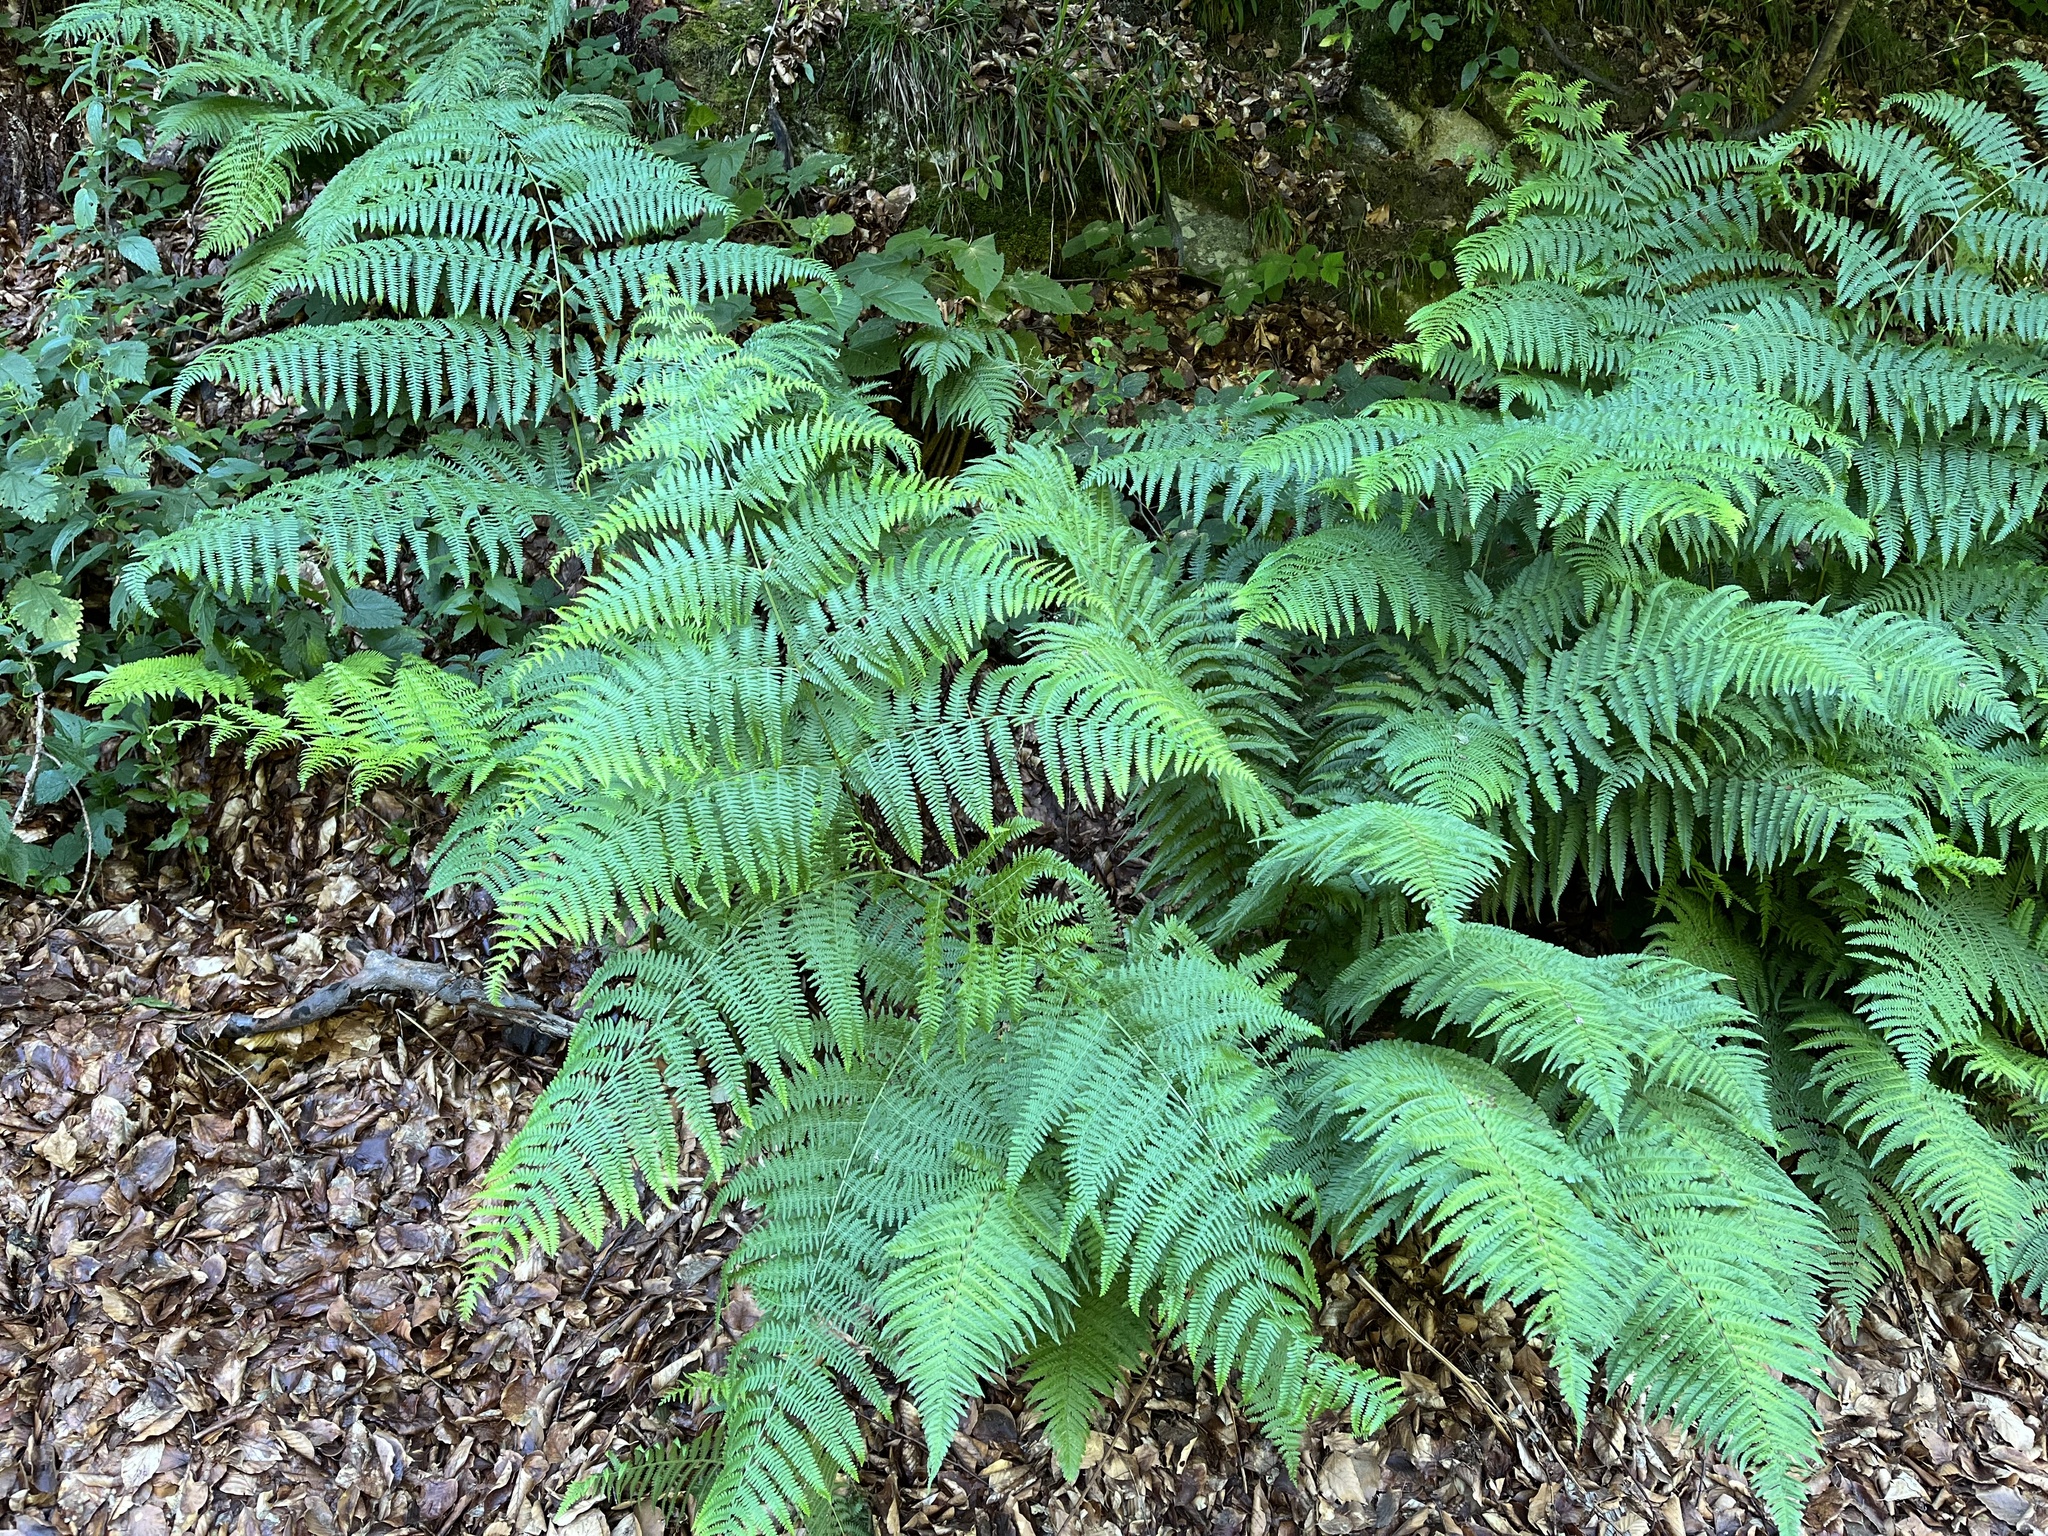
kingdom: Plantae
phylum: Tracheophyta
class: Polypodiopsida
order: Polypodiales
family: Dennstaedtiaceae
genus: Pteridium
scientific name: Pteridium aquilinum
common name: Bracken
